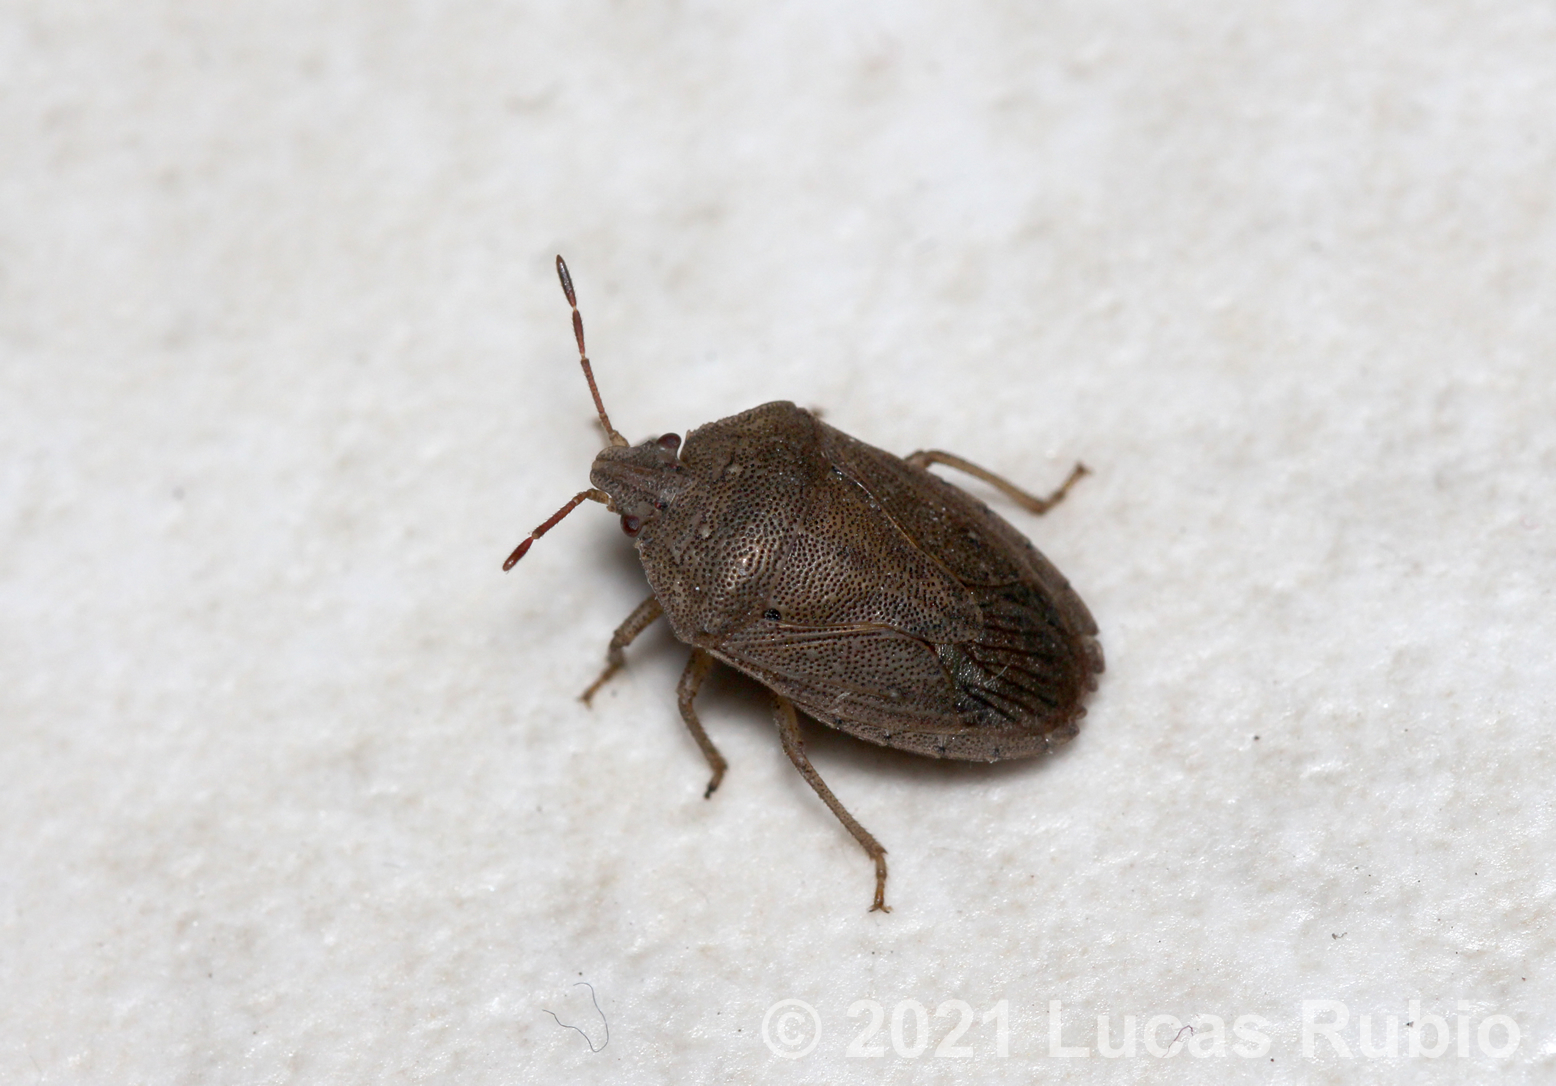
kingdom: Animalia
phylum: Arthropoda
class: Insecta
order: Hemiptera
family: Pentatomidae
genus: Hypatropis
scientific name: Hypatropis inermis
